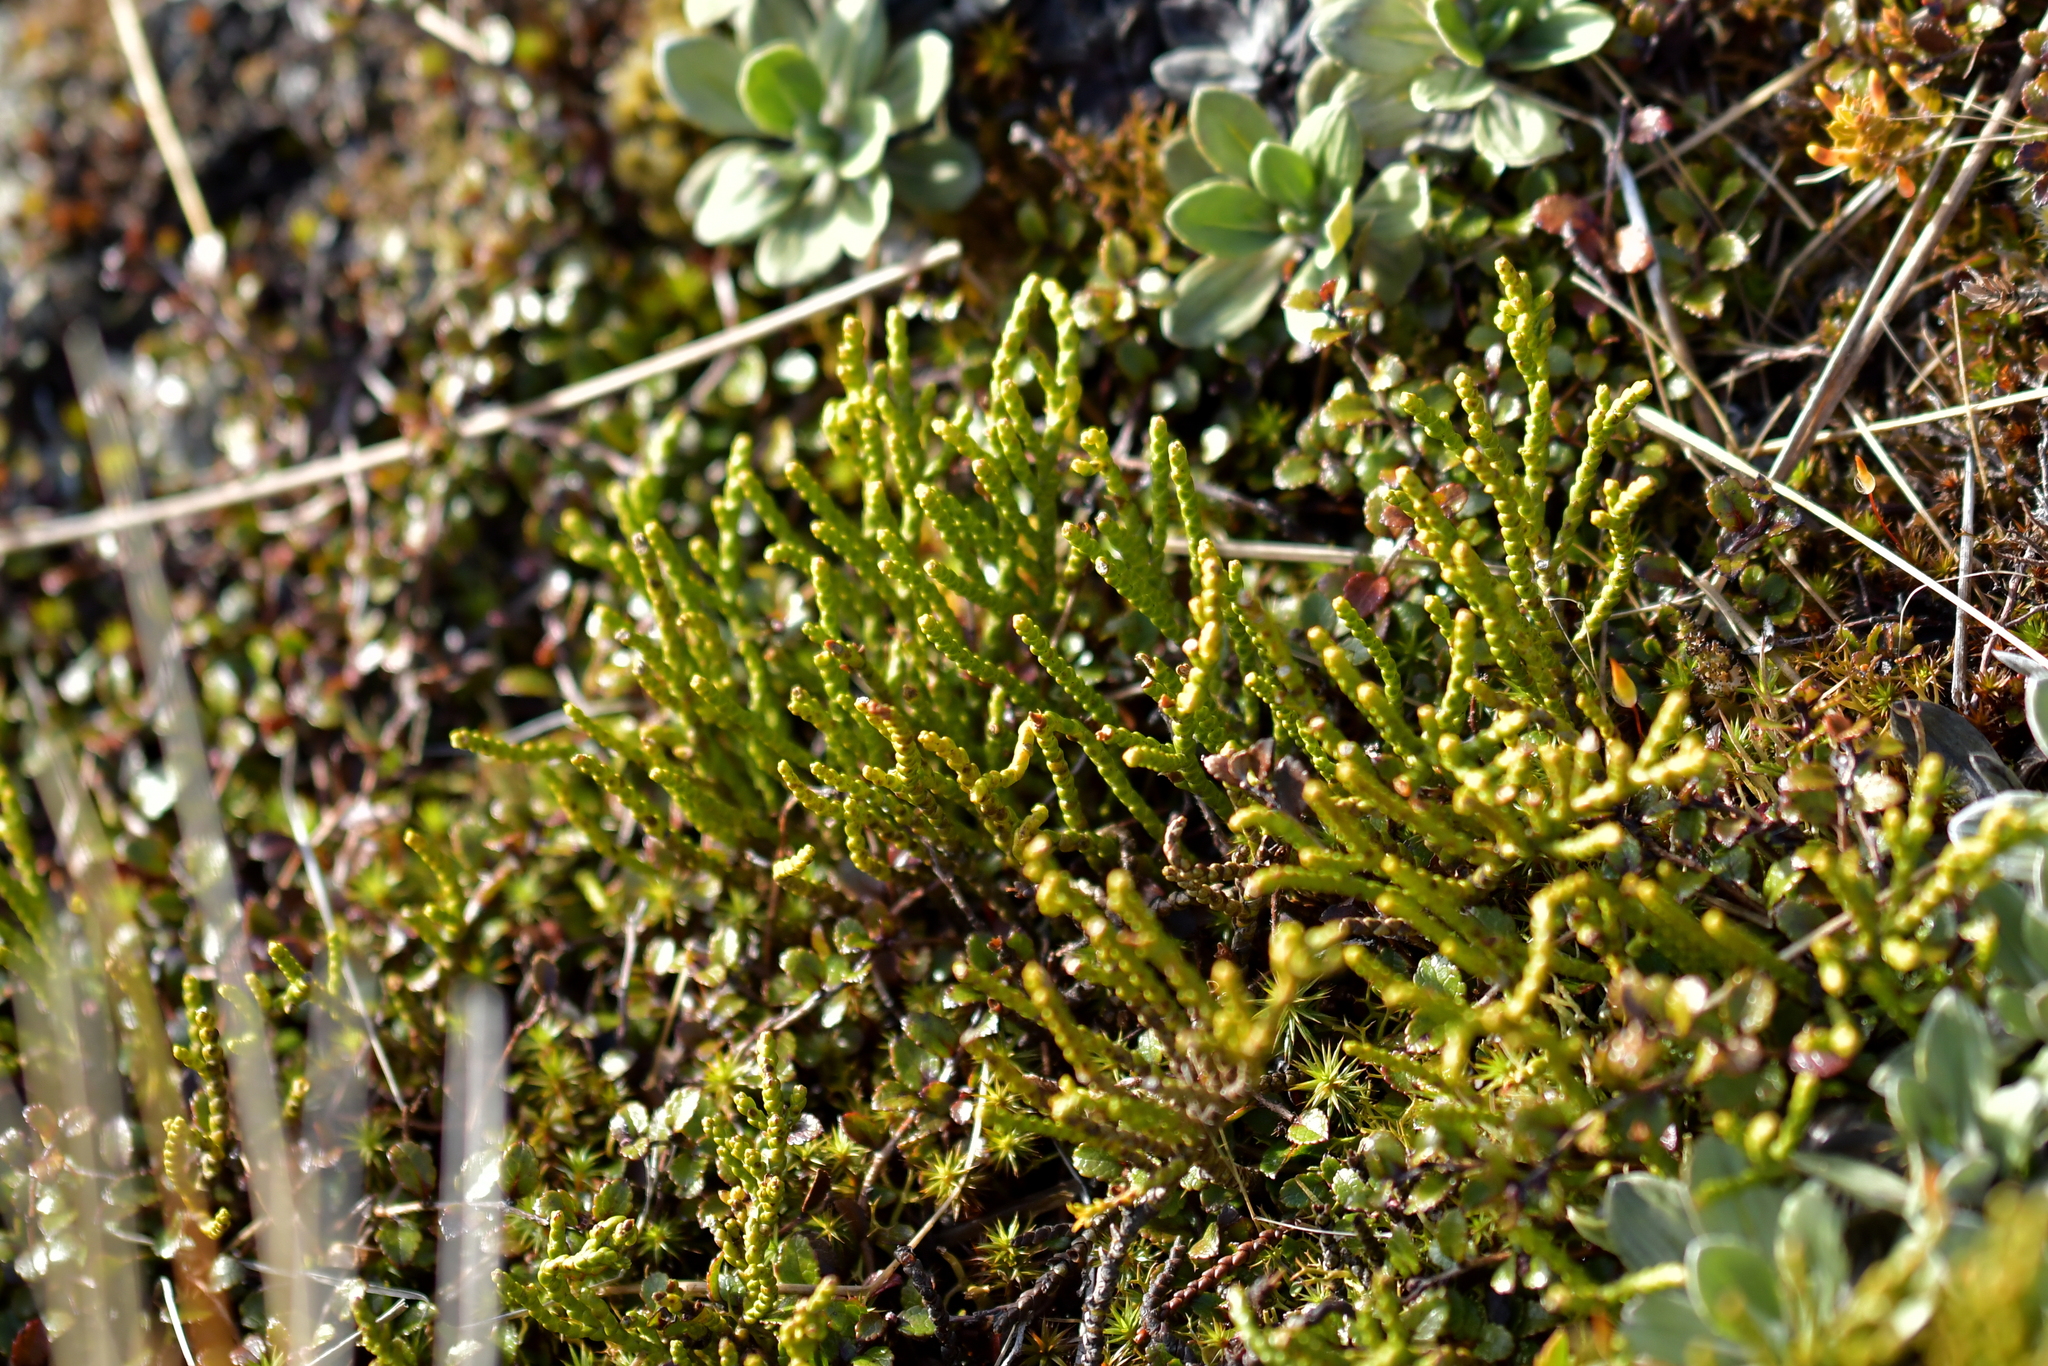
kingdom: Plantae
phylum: Tracheophyta
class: Magnoliopsida
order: Lamiales
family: Plantaginaceae
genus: Veronica
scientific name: Veronica hectorii
